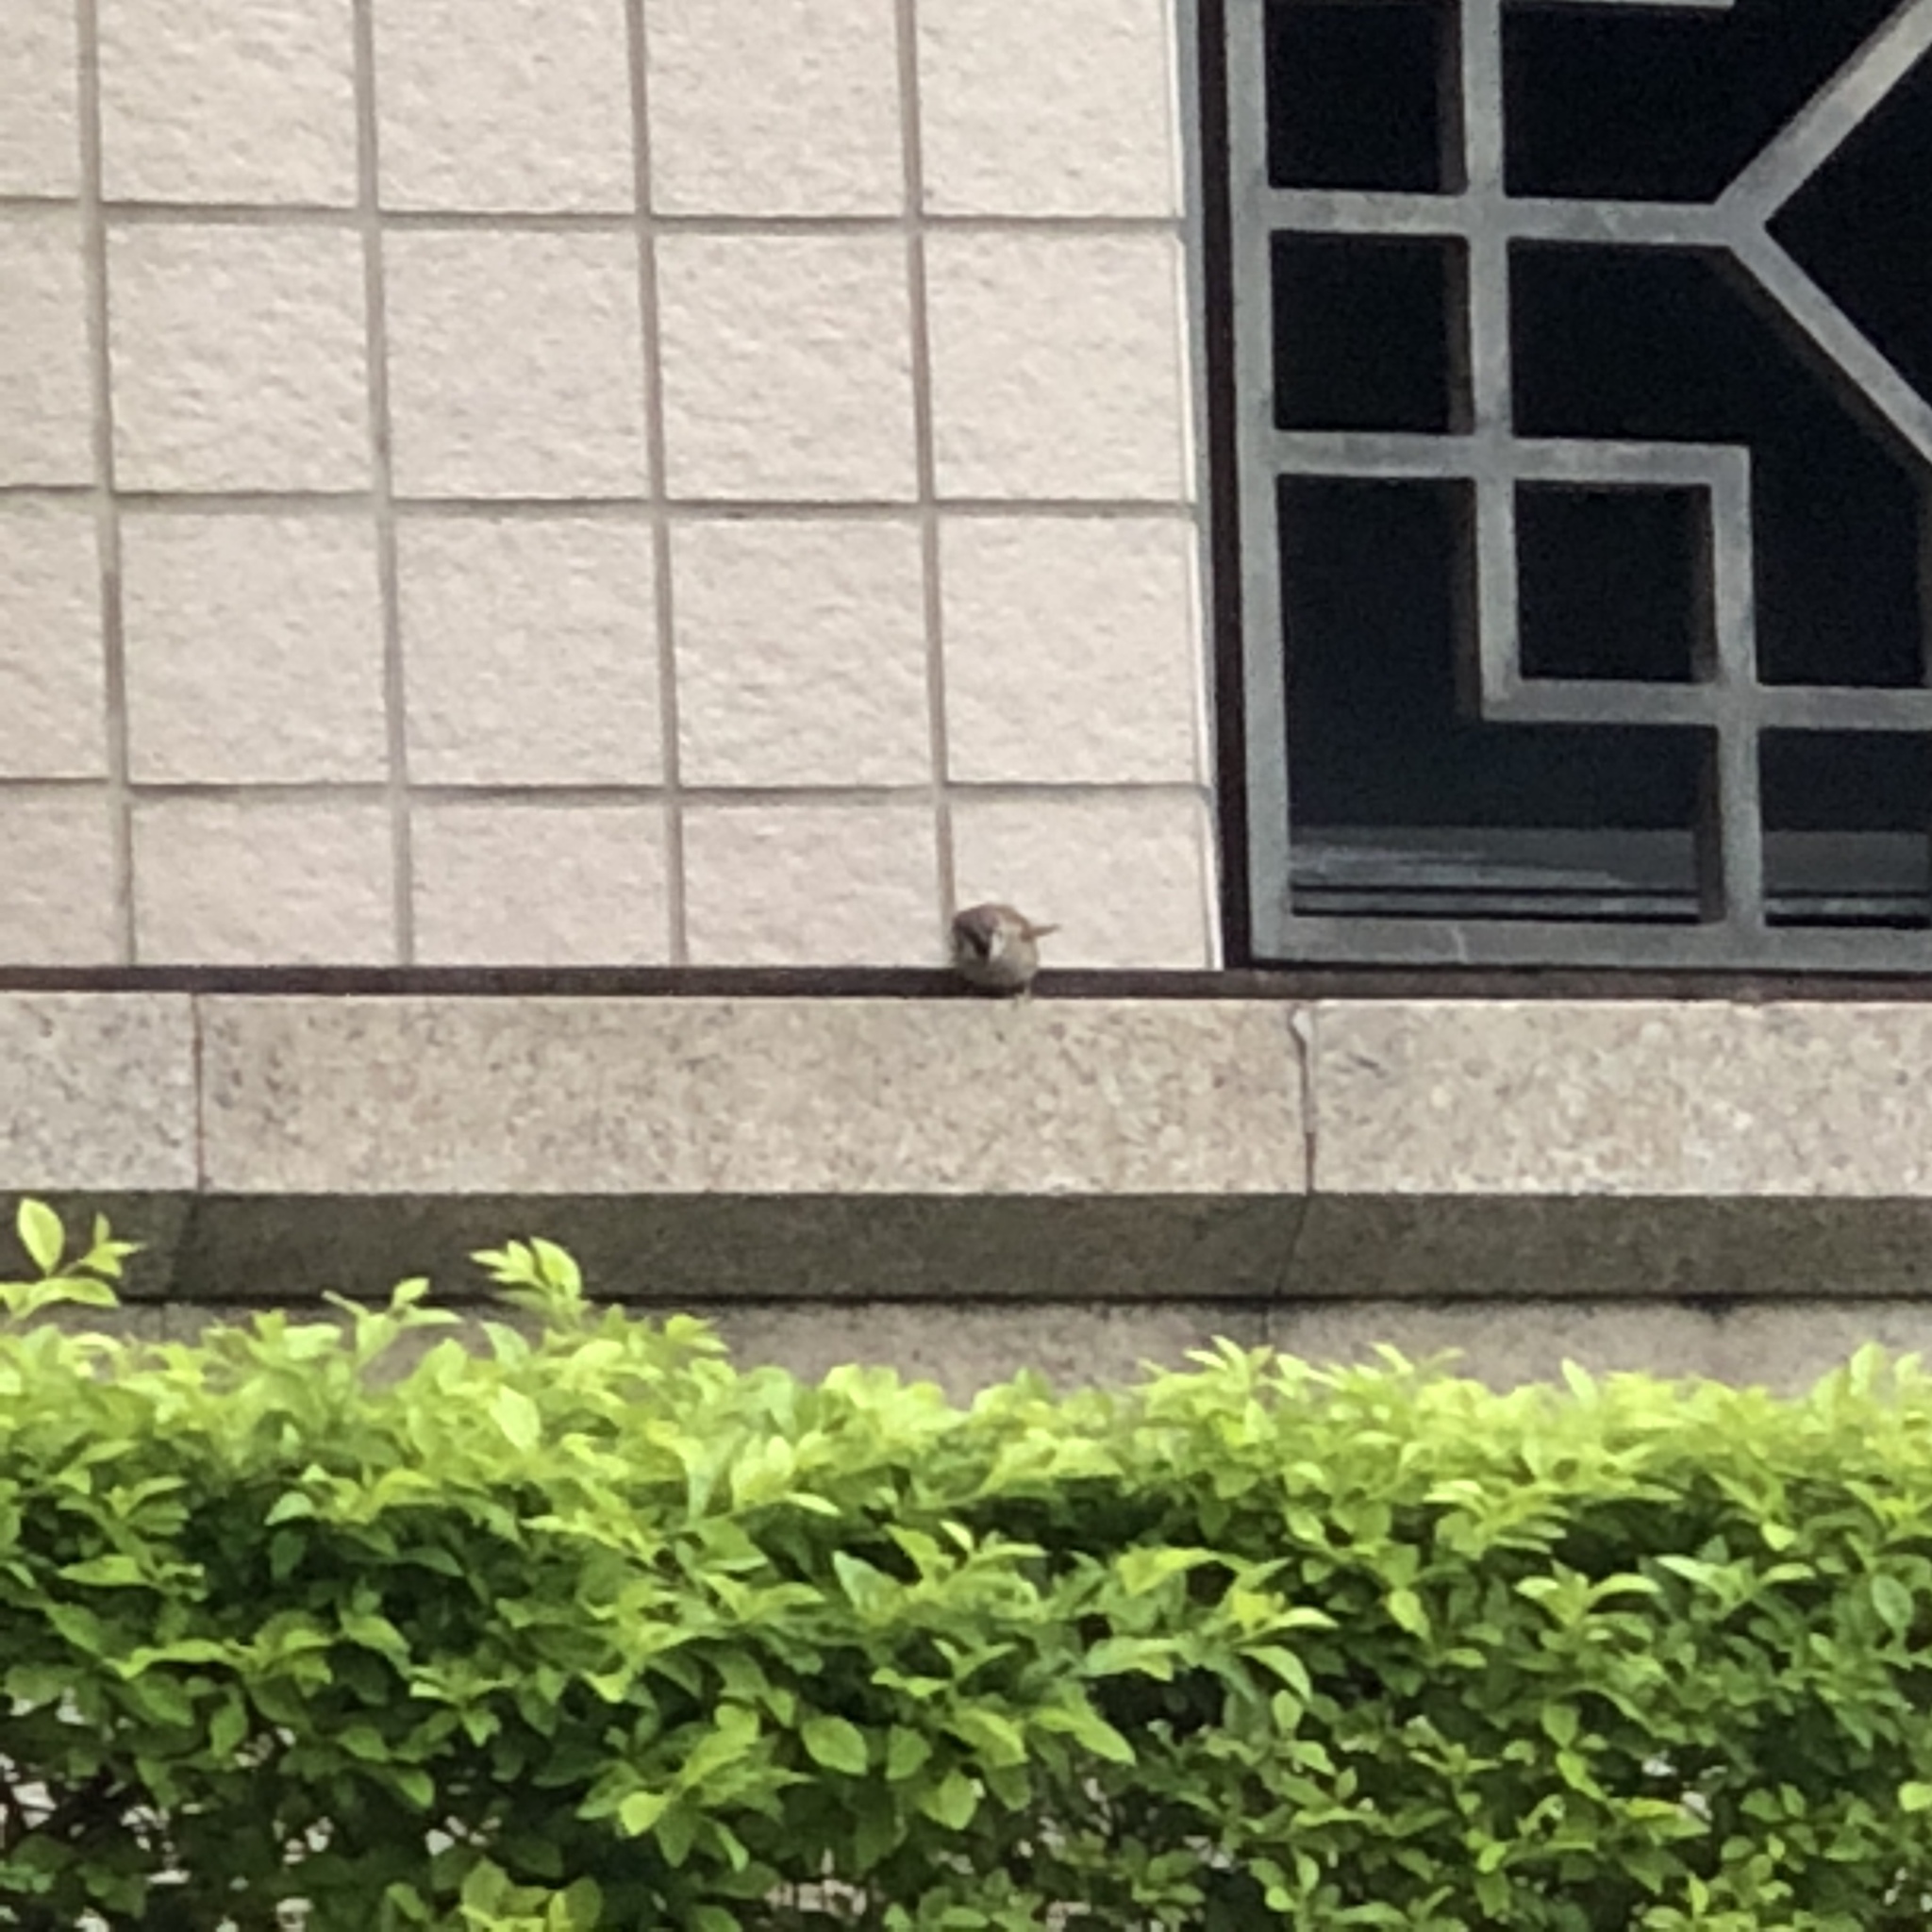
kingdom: Animalia
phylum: Chordata
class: Aves
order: Passeriformes
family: Passeridae
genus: Passer
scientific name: Passer montanus
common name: Eurasian tree sparrow
